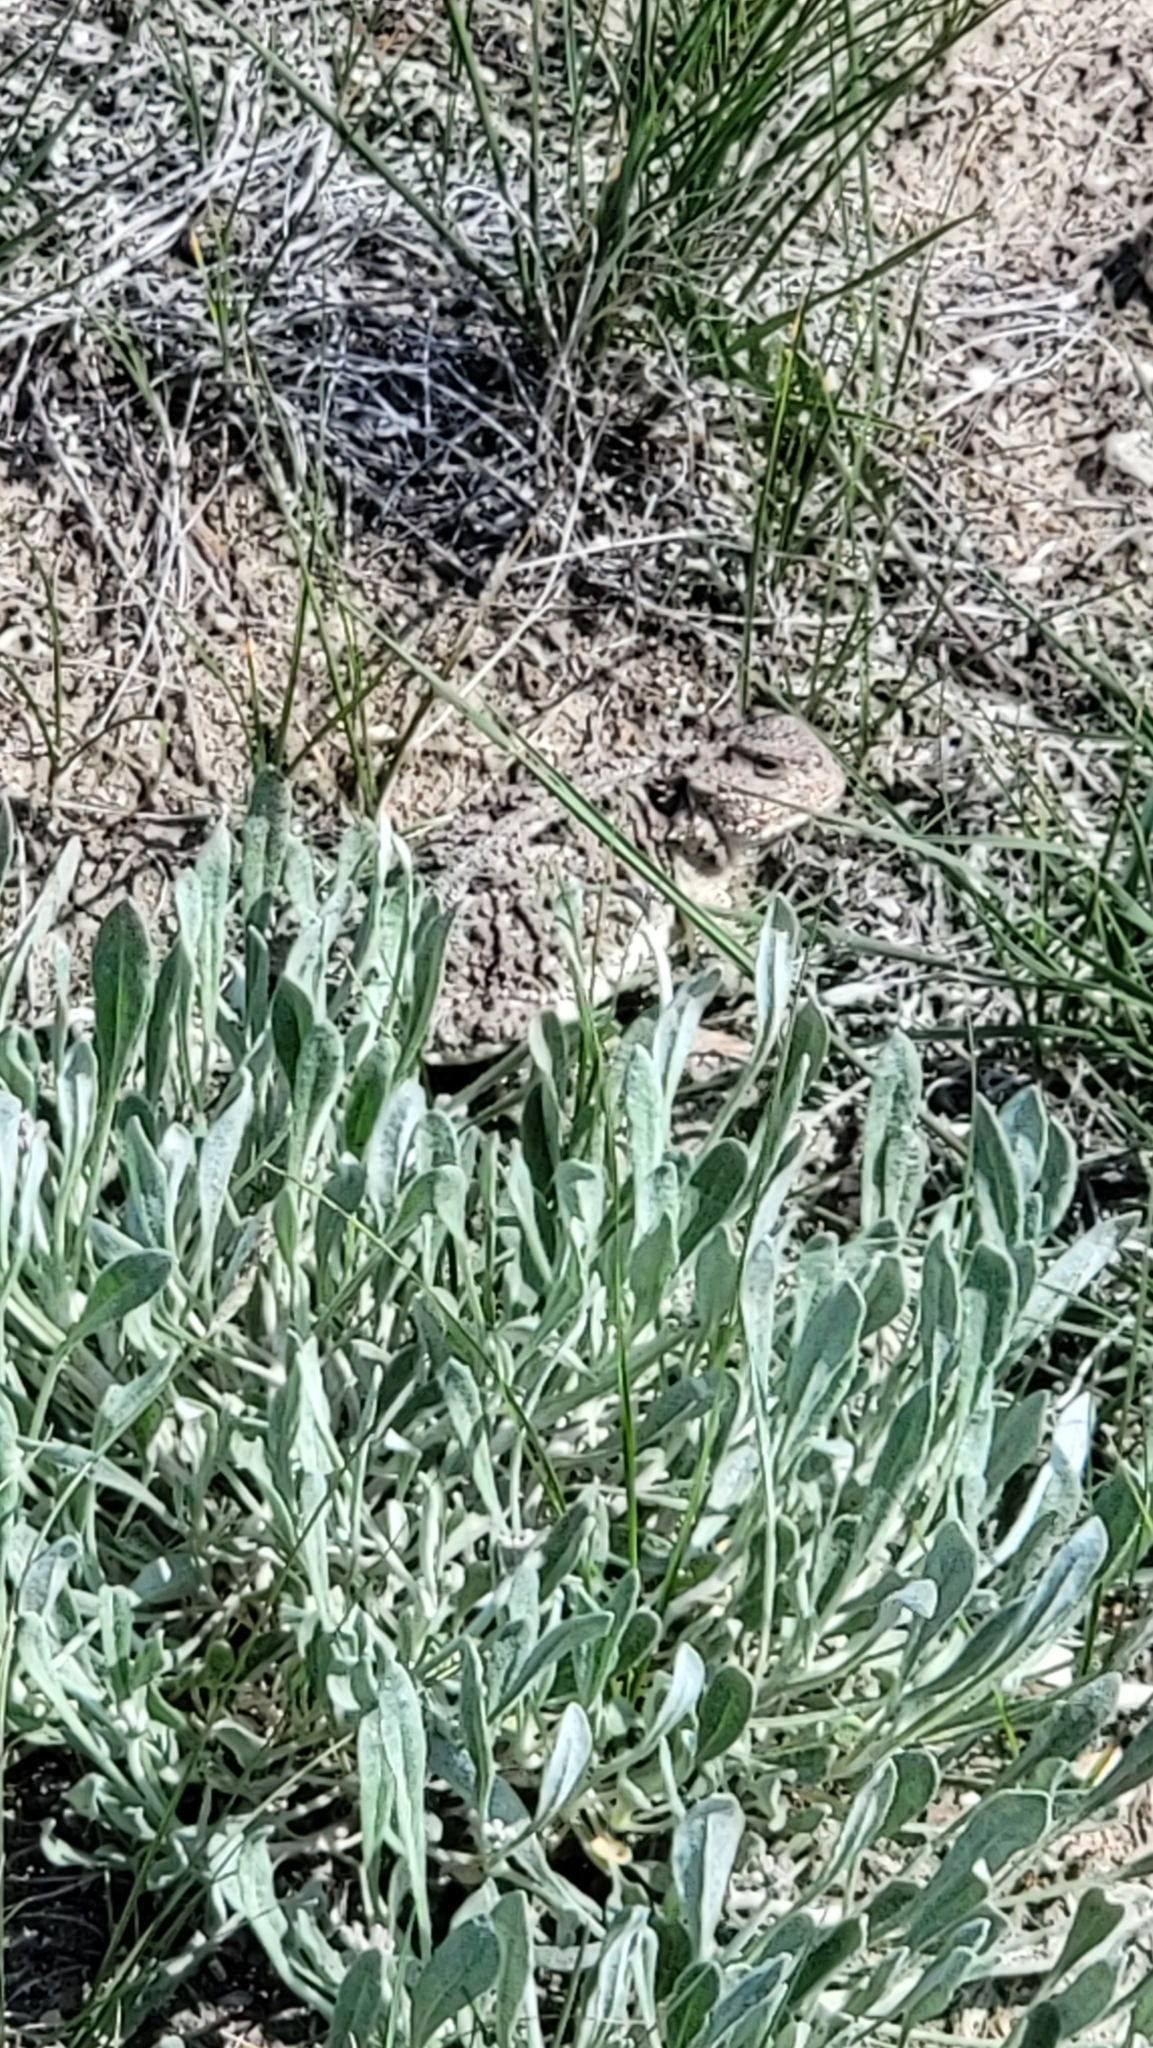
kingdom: Animalia
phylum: Chordata
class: Squamata
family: Phrynosomatidae
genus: Phrynosoma
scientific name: Phrynosoma hernandesi
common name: Greater short-horned lizard
